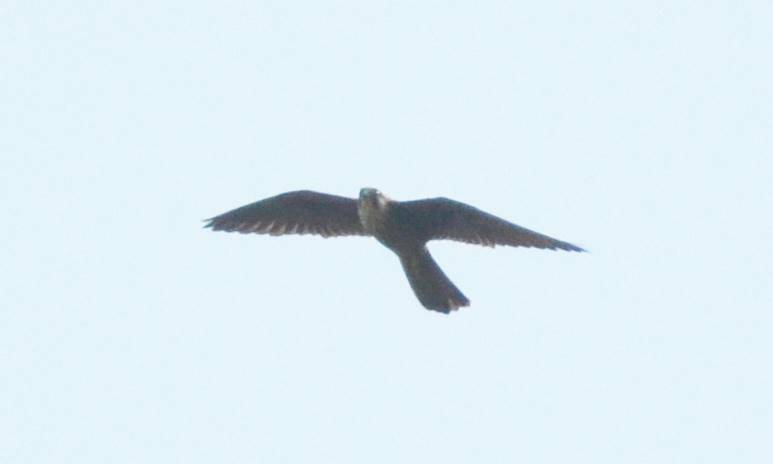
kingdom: Animalia
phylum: Chordata
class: Aves
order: Falconiformes
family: Falconidae
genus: Falco
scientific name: Falco eleonorae
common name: Eleonora's falcon
